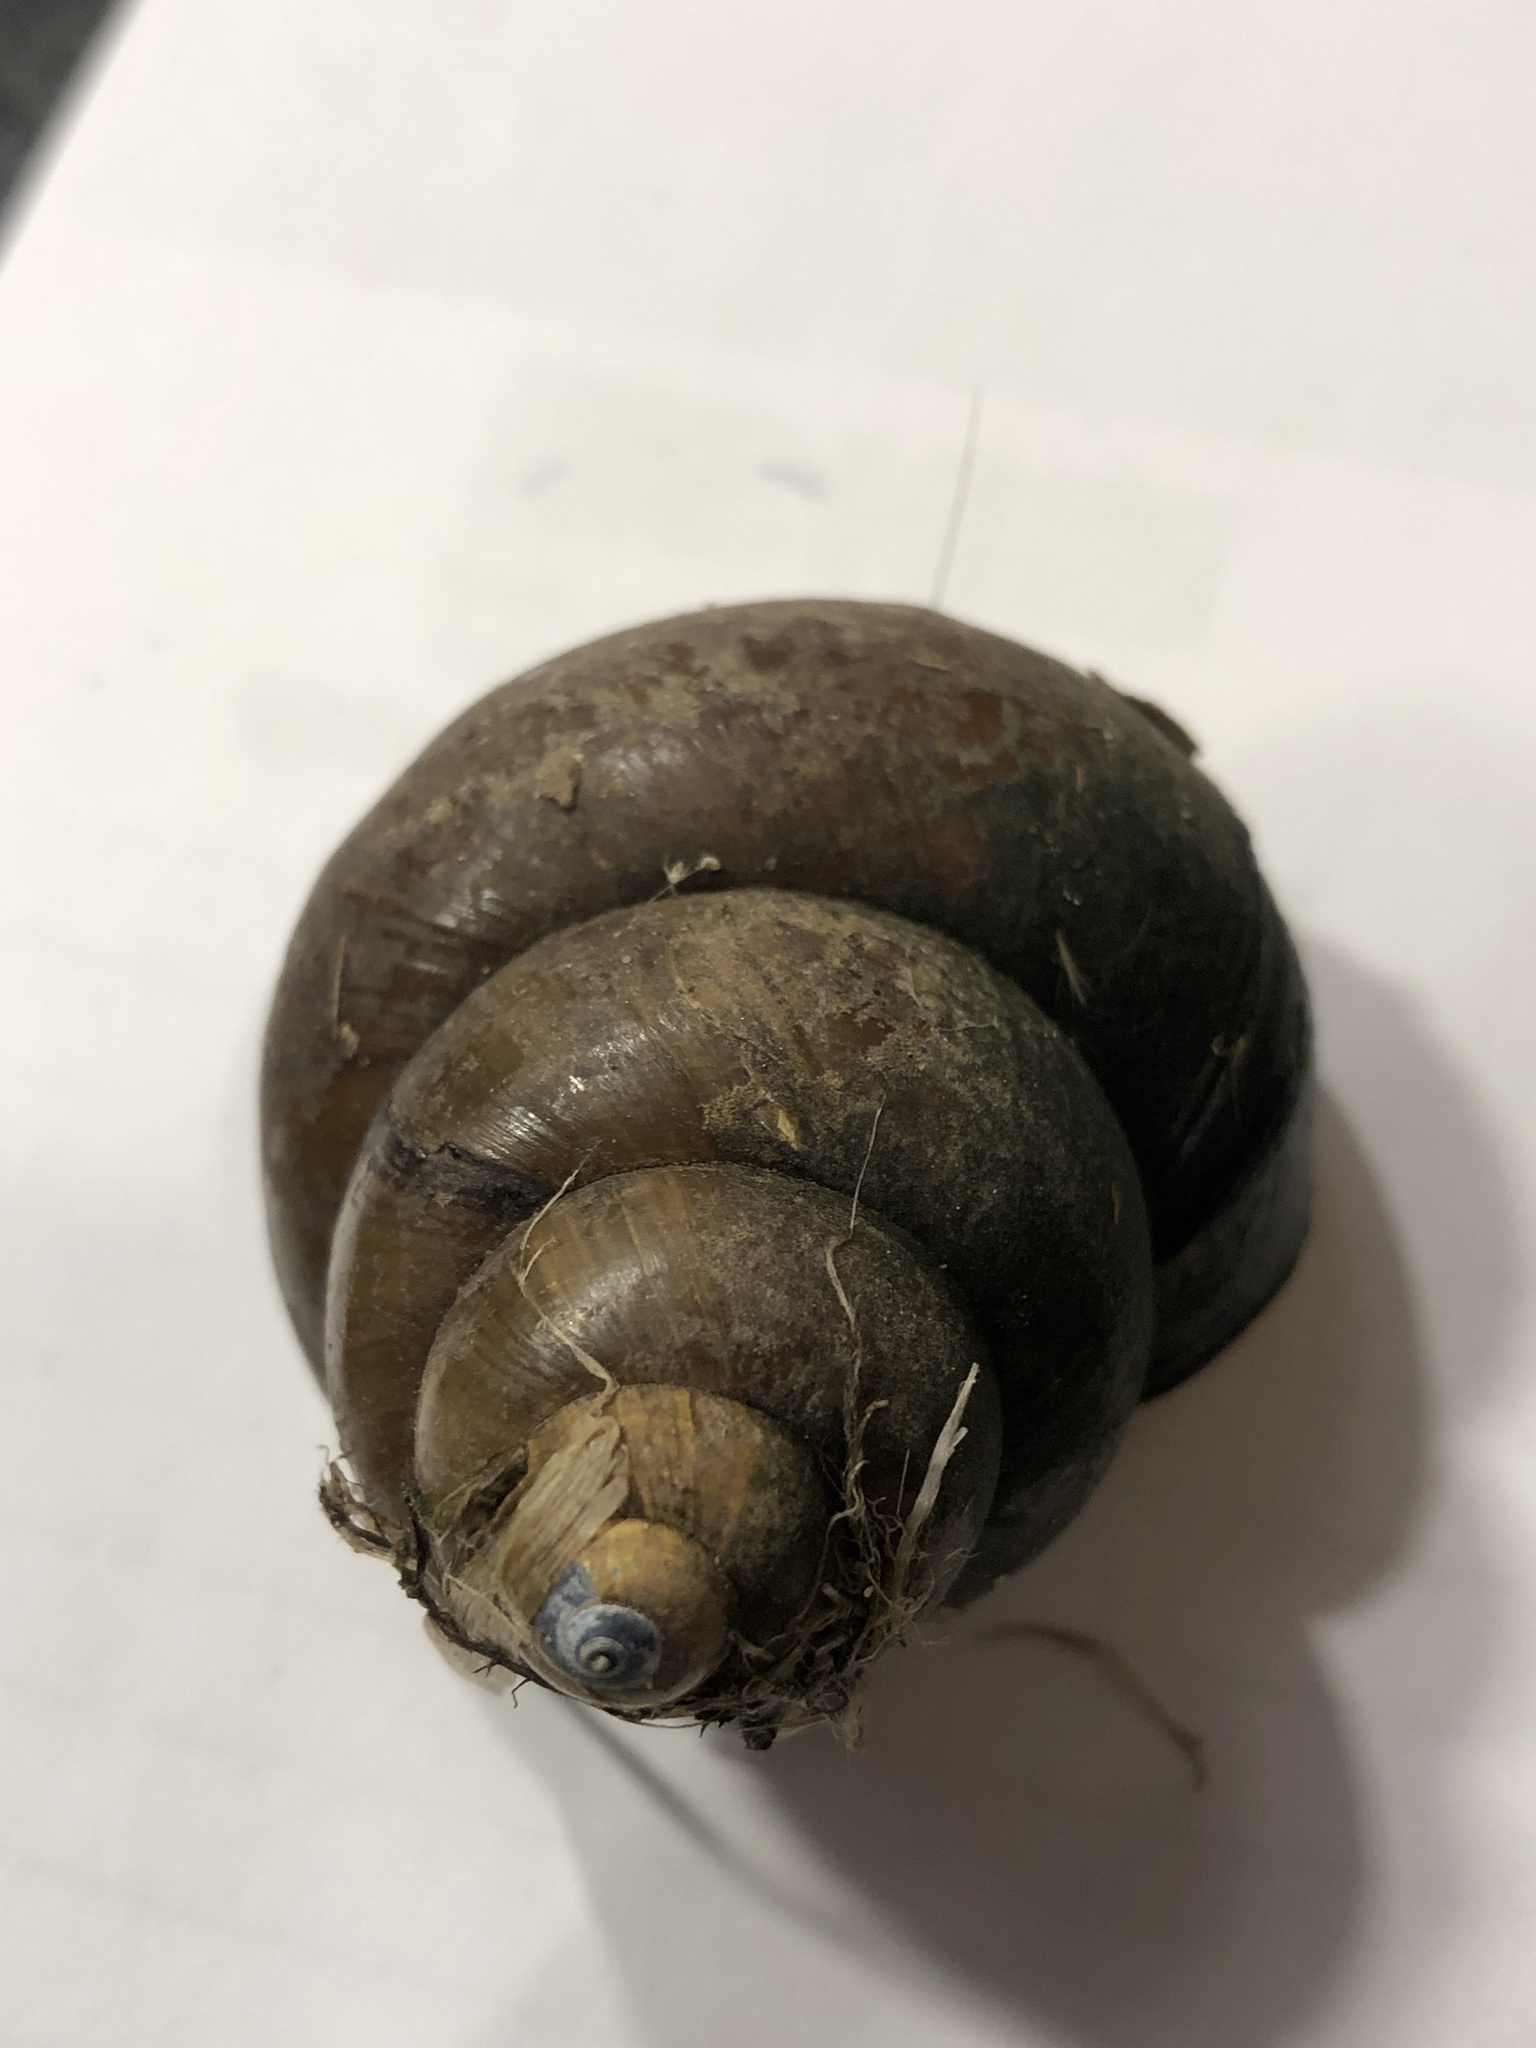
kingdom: Animalia
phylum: Mollusca
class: Gastropoda
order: Architaenioglossa
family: Viviparidae
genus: Cipangopaludina
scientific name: Cipangopaludina chinensis
